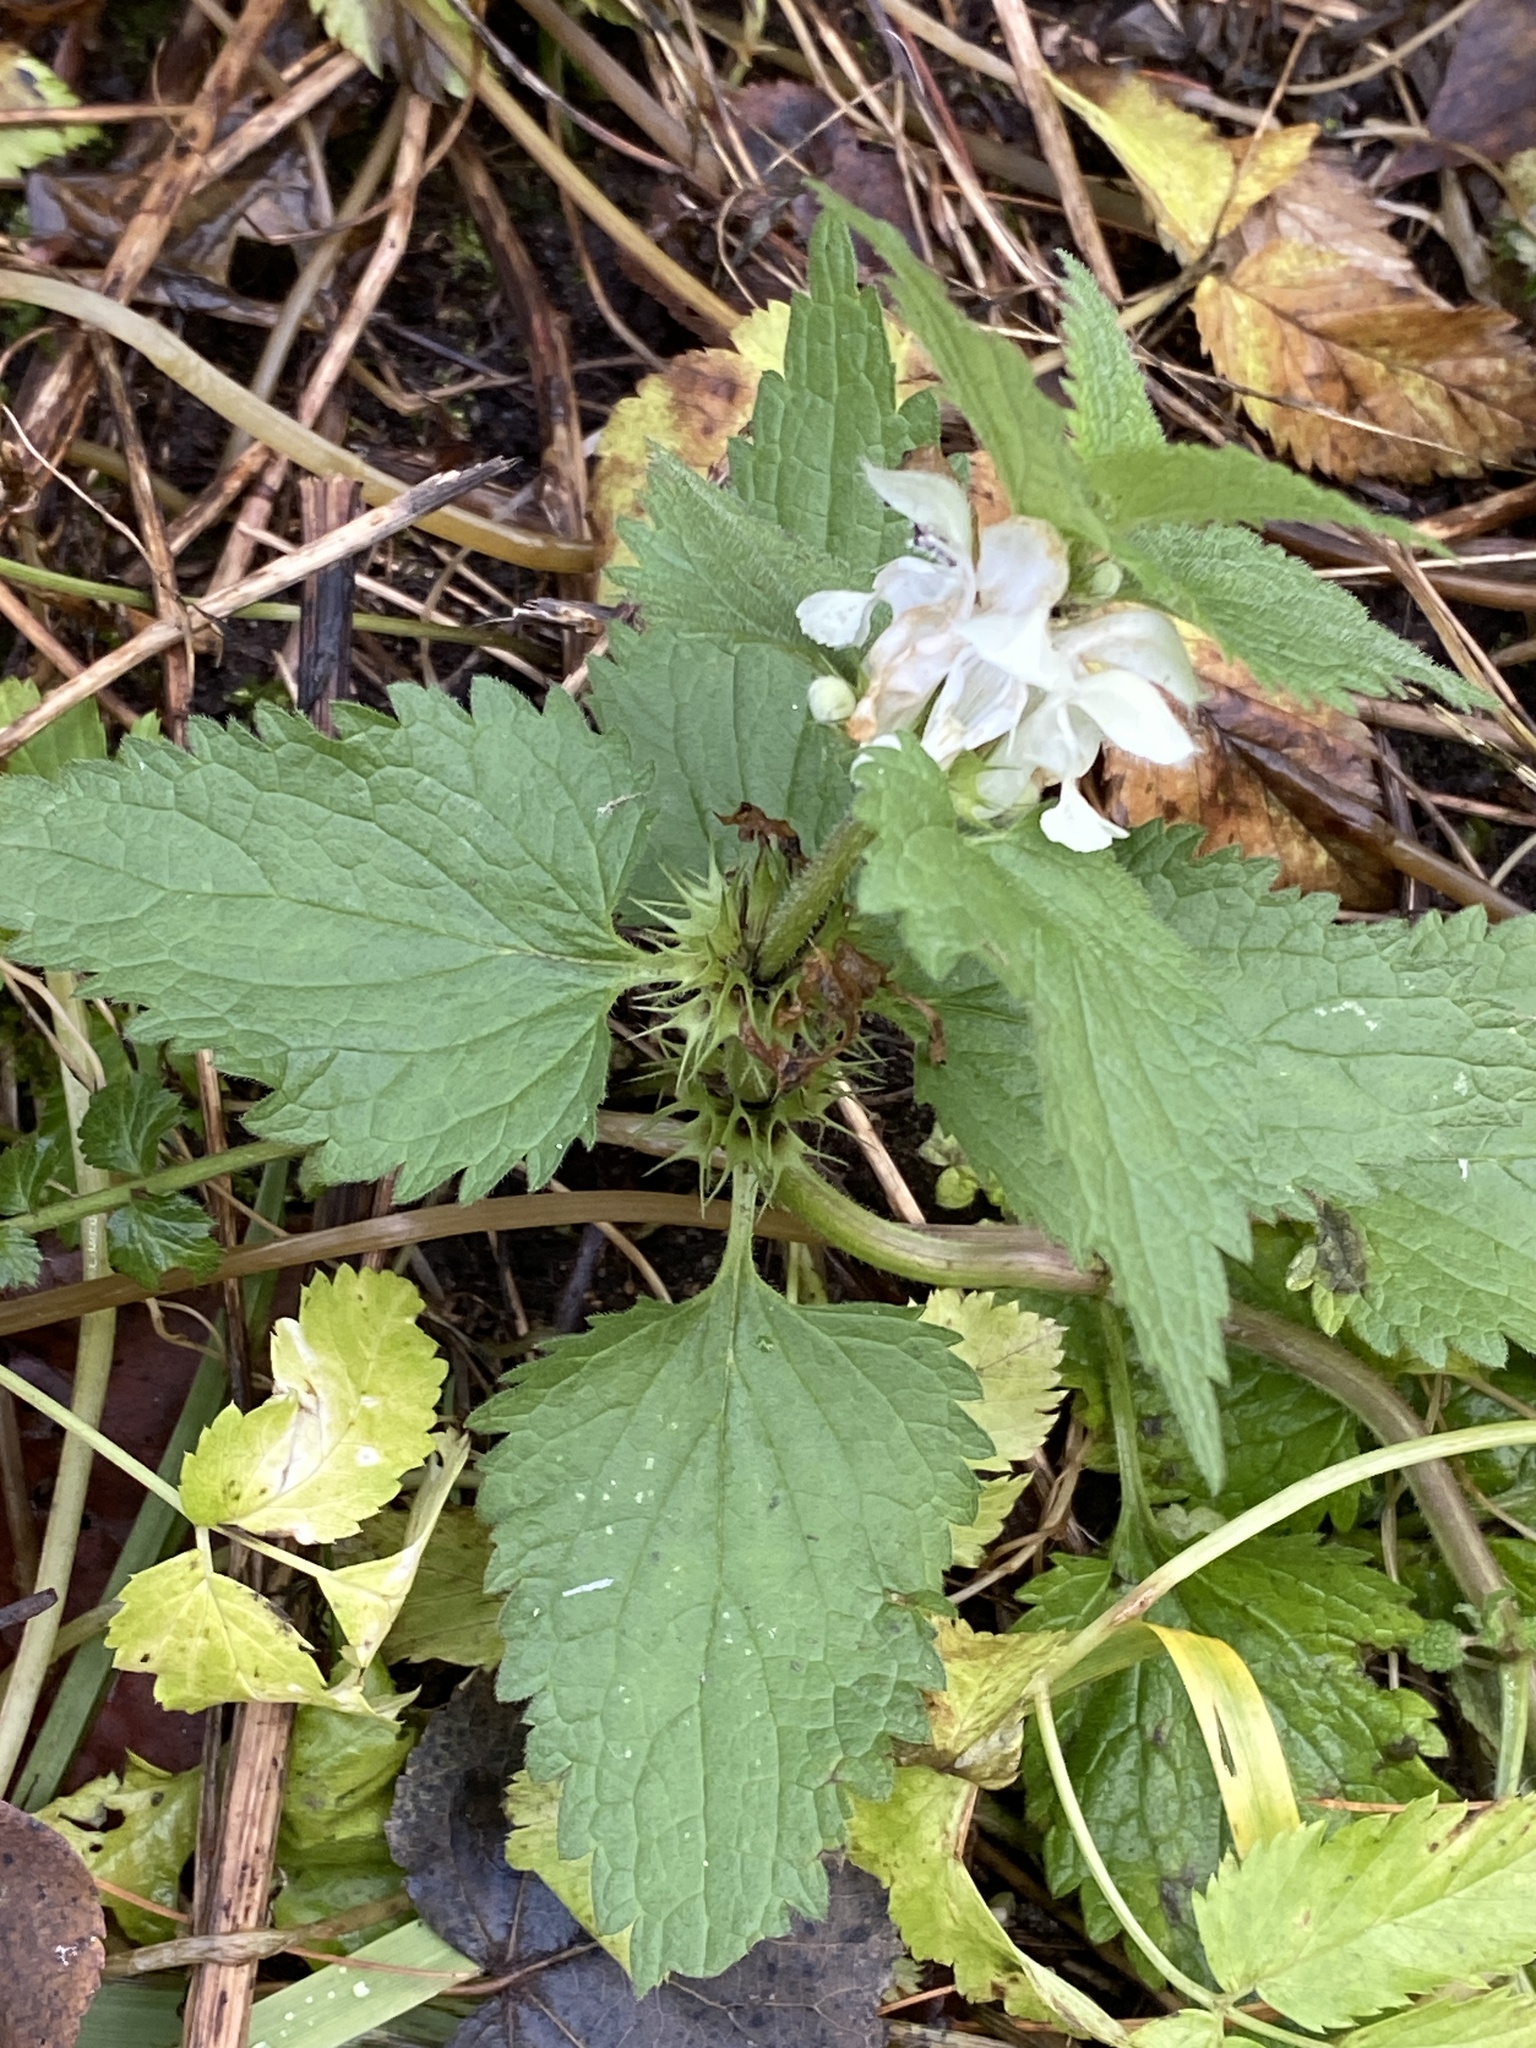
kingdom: Plantae
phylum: Tracheophyta
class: Magnoliopsida
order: Lamiales
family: Lamiaceae
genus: Lamium
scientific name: Lamium album
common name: White dead-nettle
